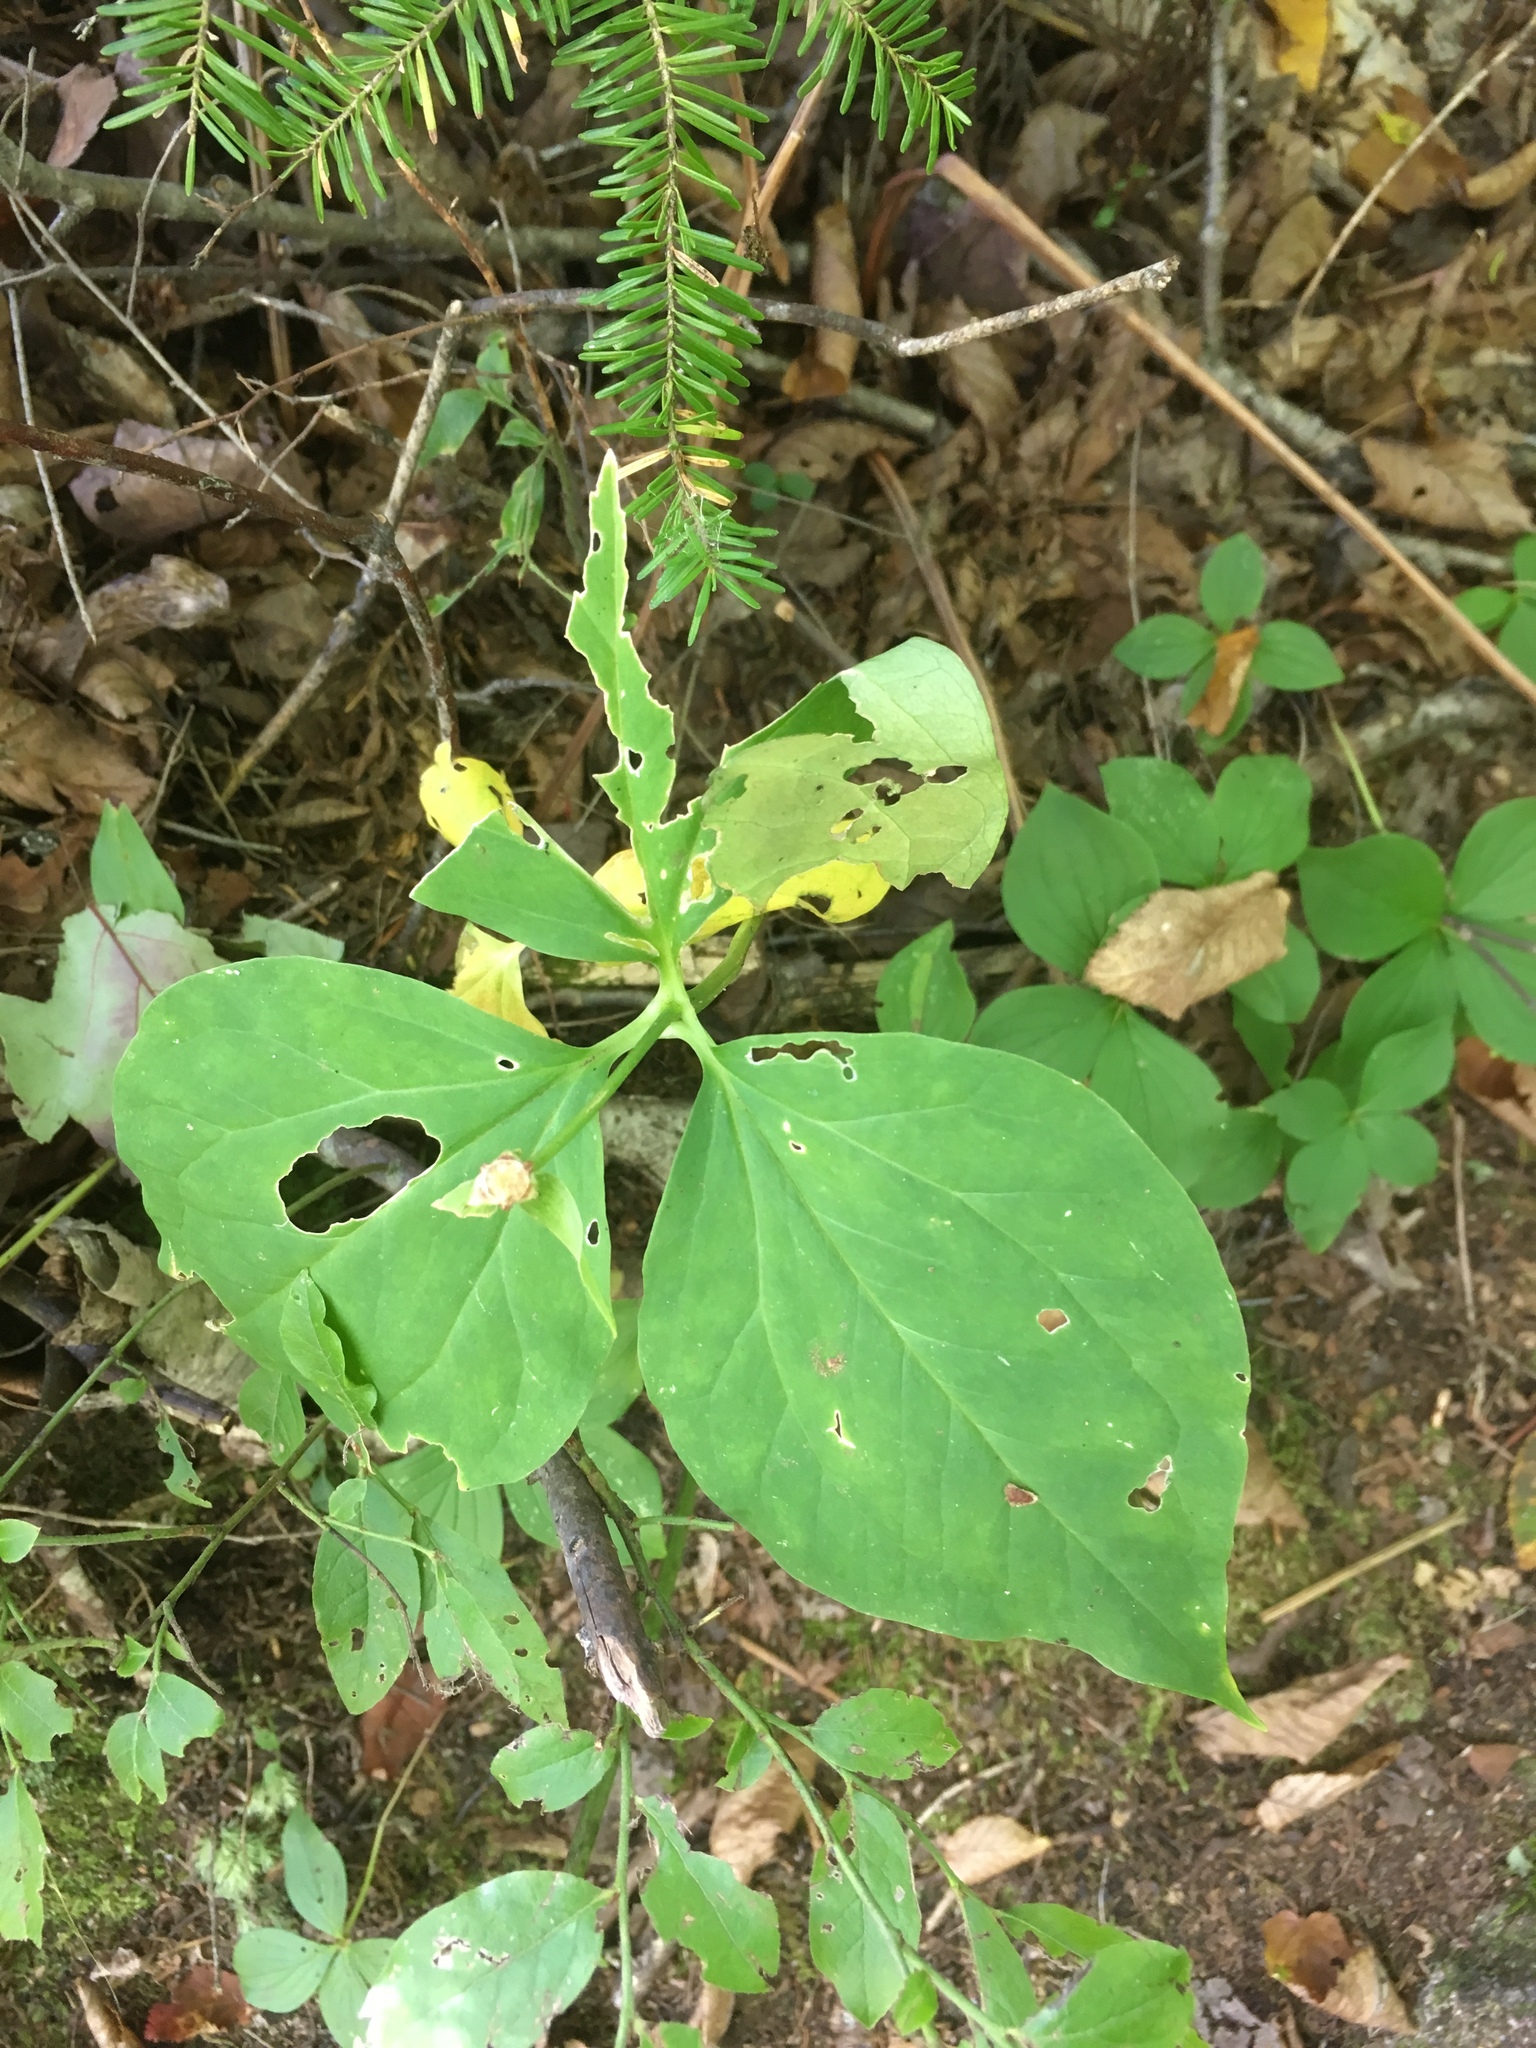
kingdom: Plantae
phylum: Tracheophyta
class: Liliopsida
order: Liliales
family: Melanthiaceae
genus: Trillium
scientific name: Trillium undulatum
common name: Paint trillium
